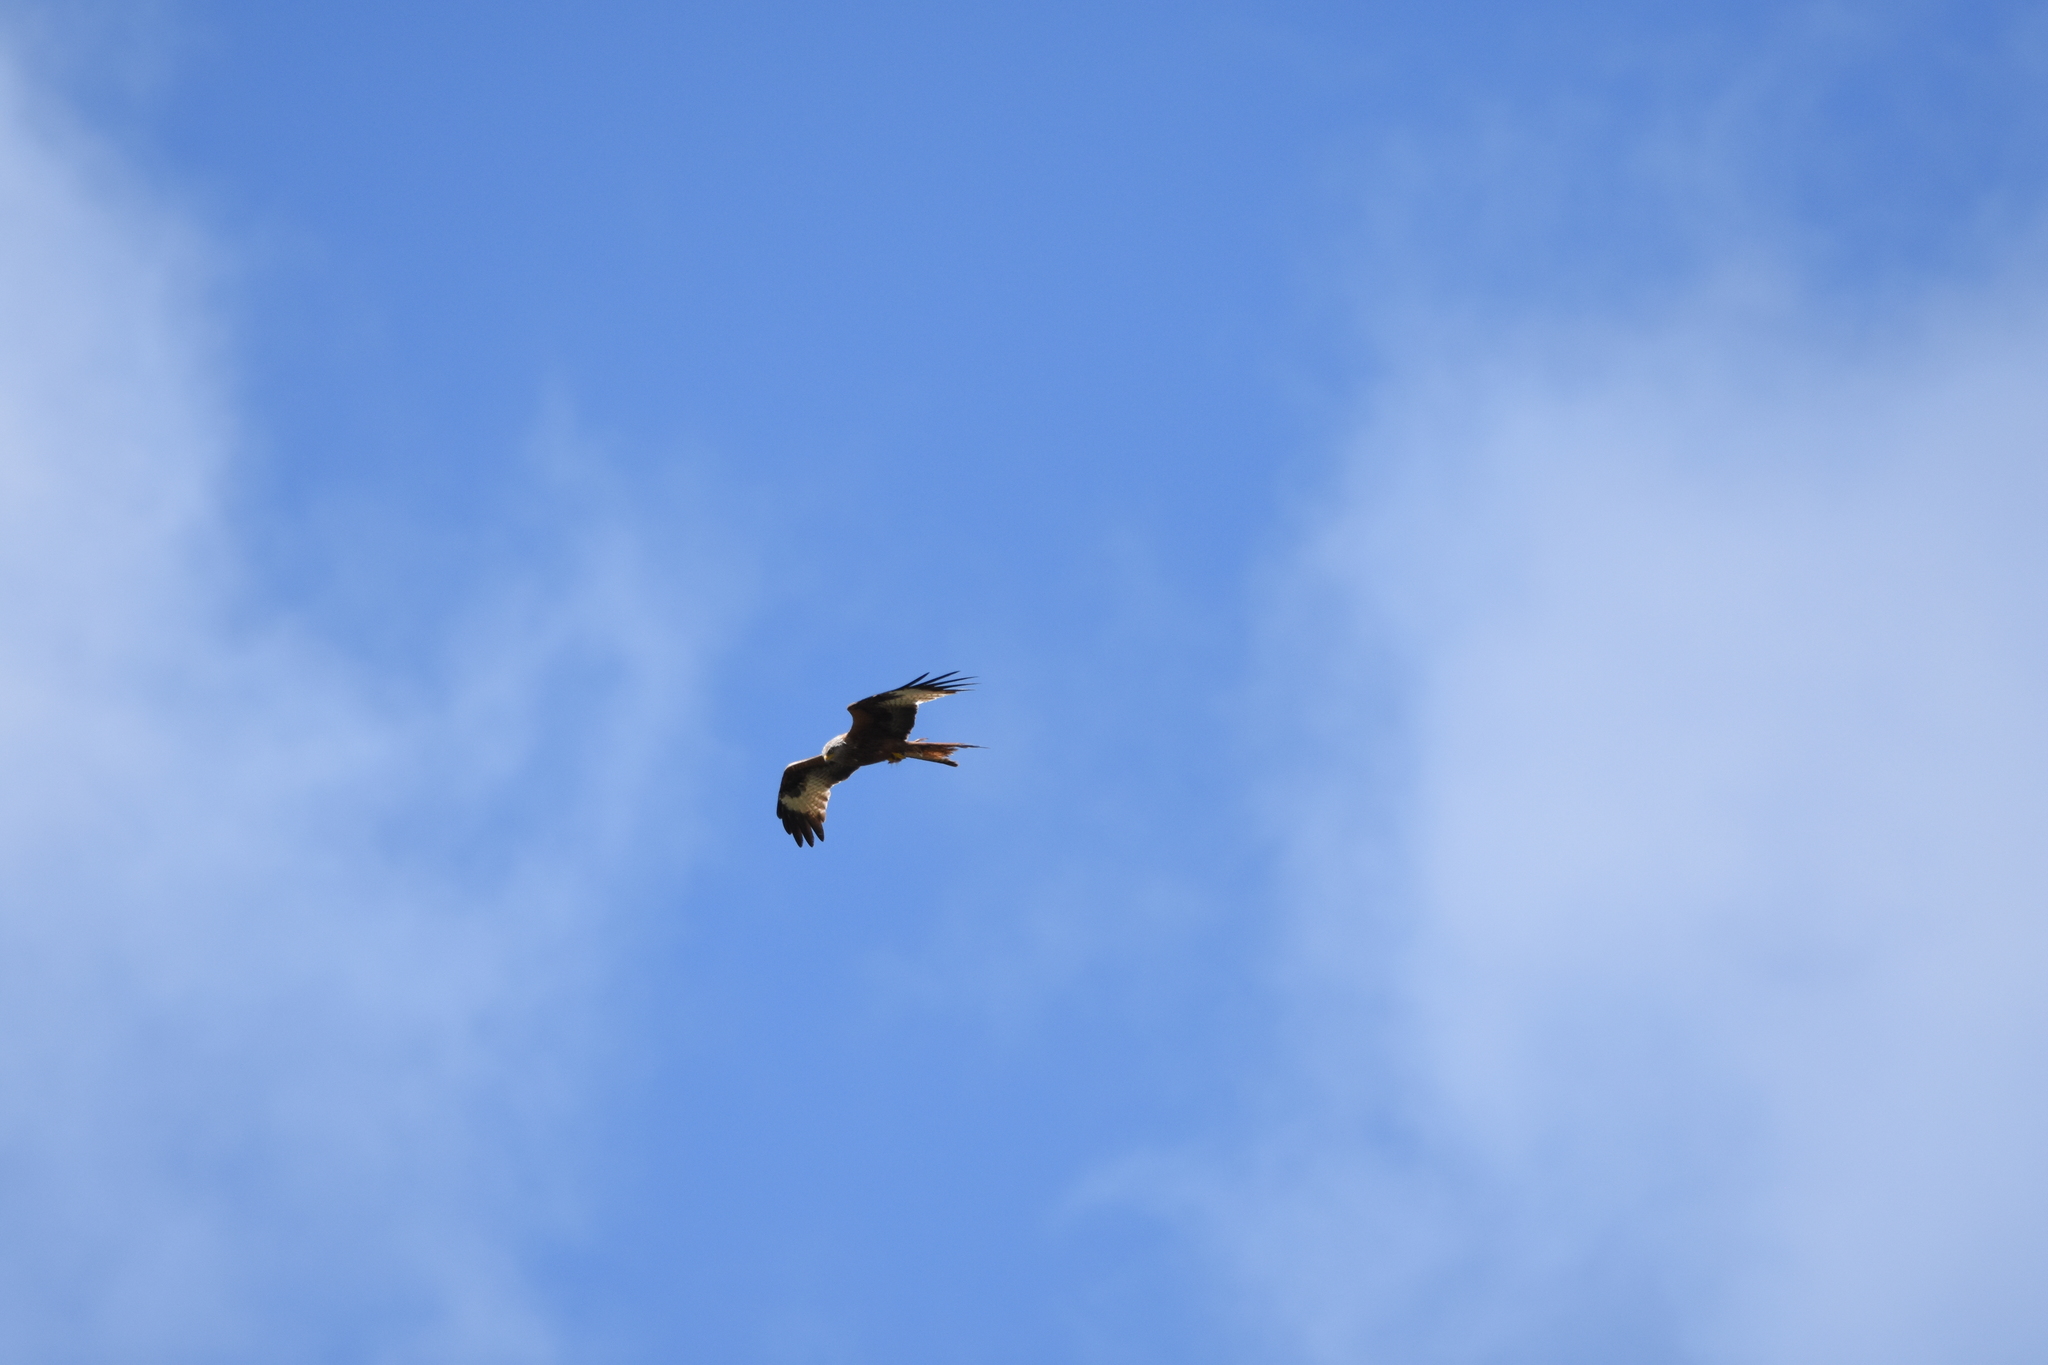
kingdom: Animalia
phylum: Chordata
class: Aves
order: Accipitriformes
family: Accipitridae
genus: Milvus
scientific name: Milvus milvus
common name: Red kite
